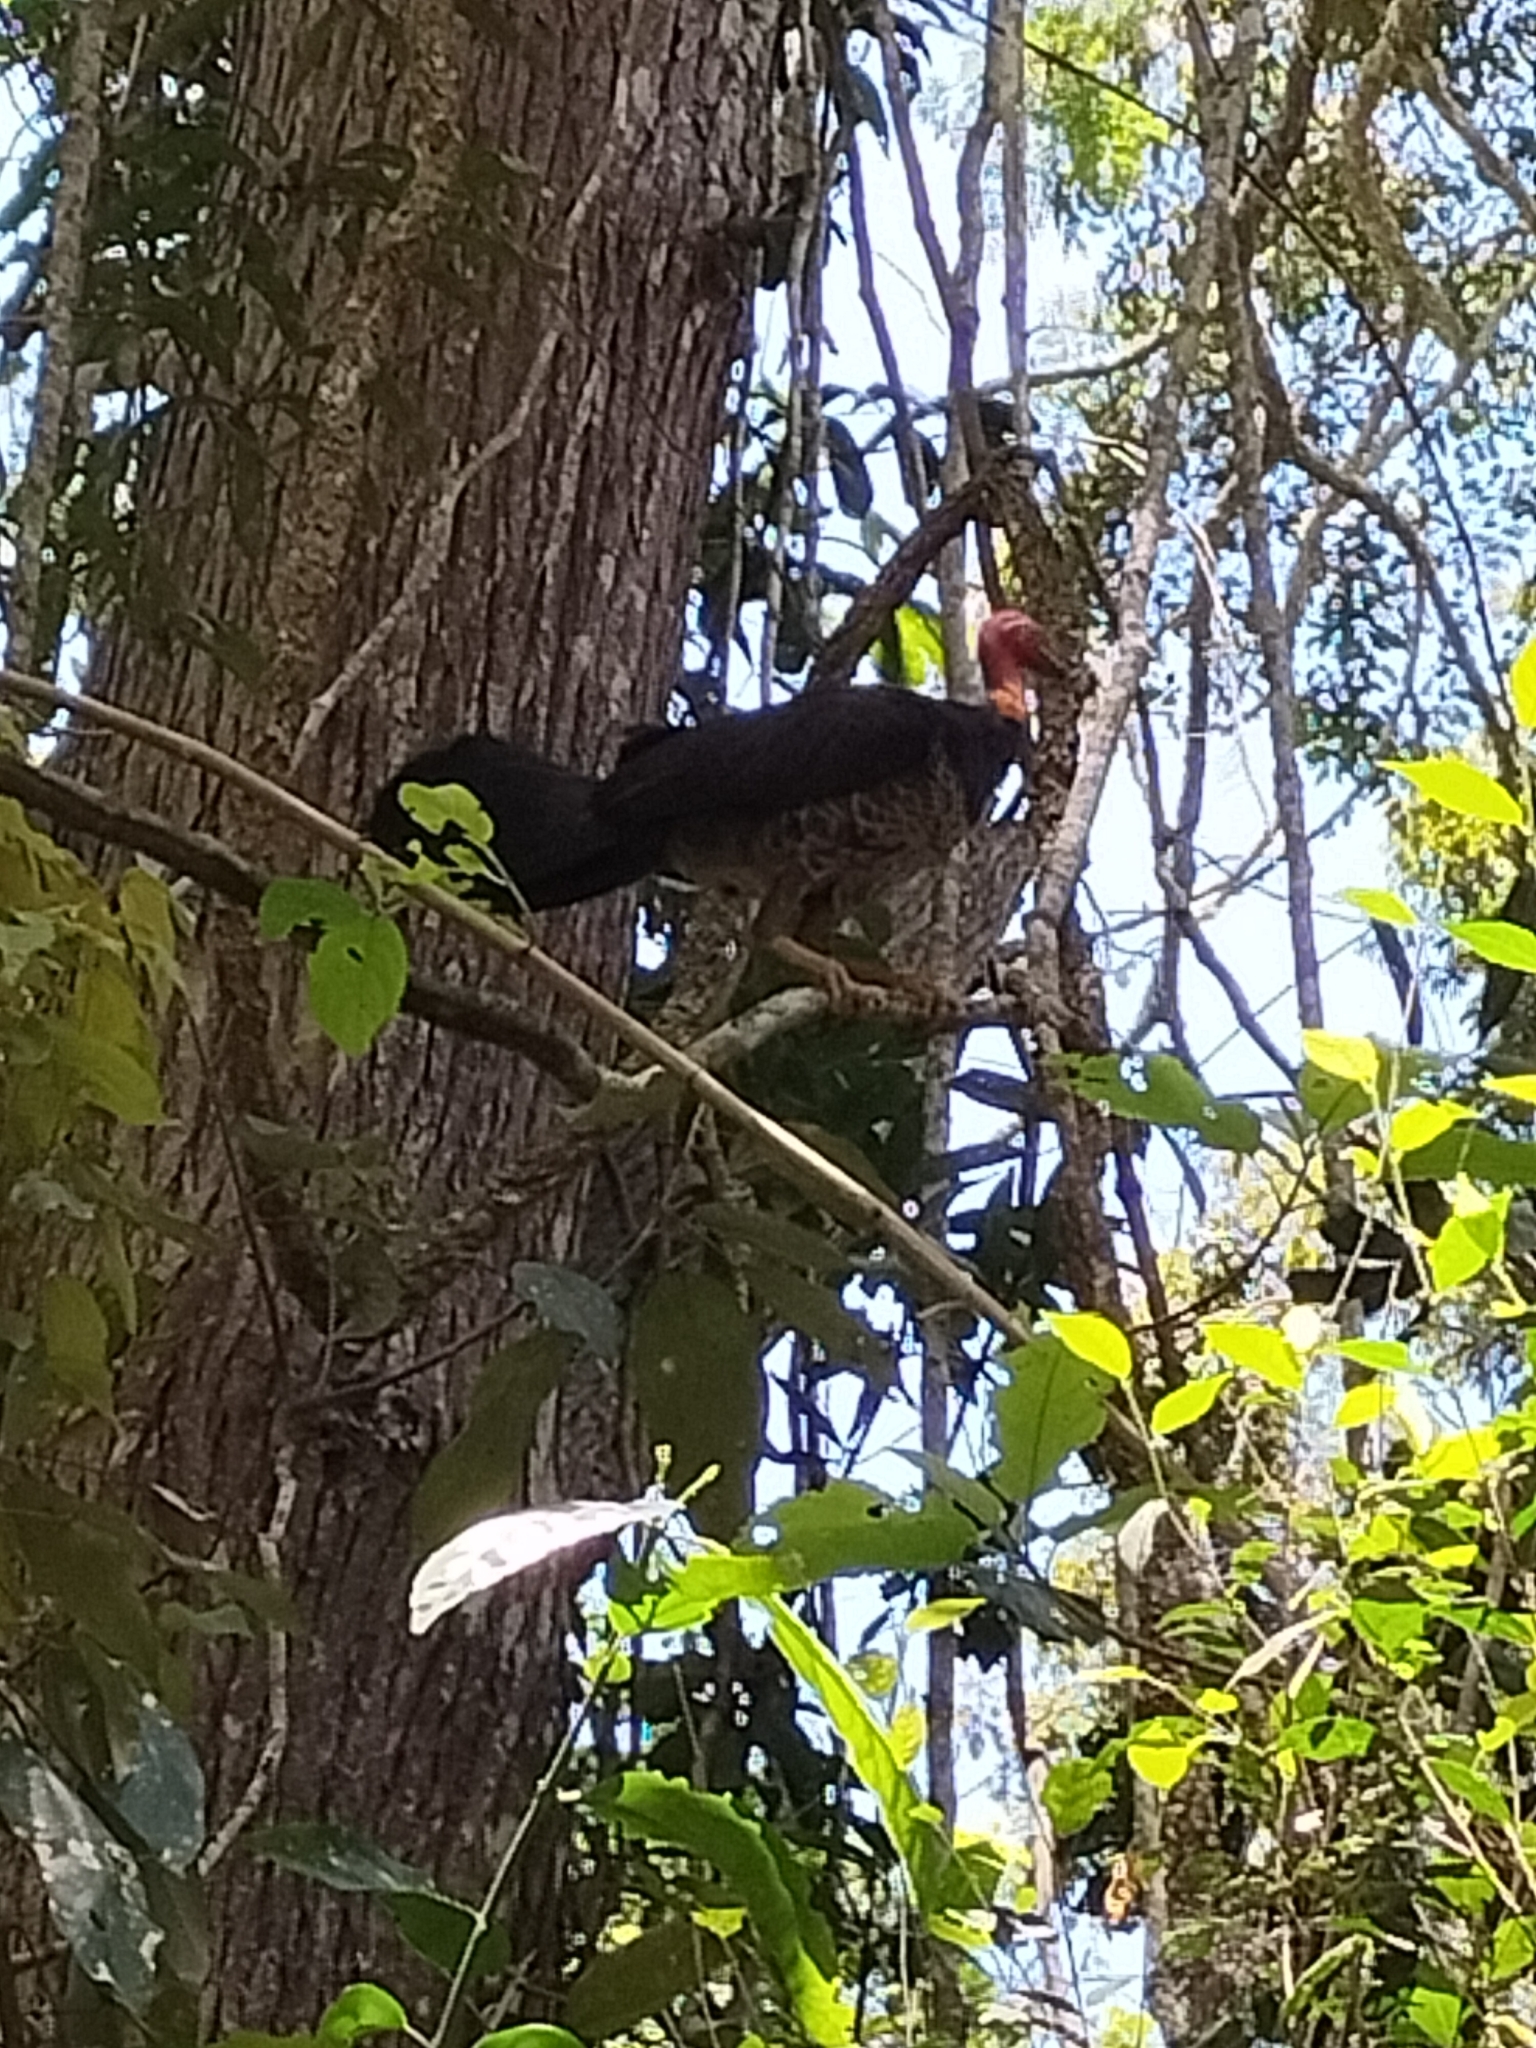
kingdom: Animalia
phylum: Chordata
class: Aves
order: Galliformes
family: Megapodiidae
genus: Alectura
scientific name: Alectura lathami
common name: Australian brushturkey
